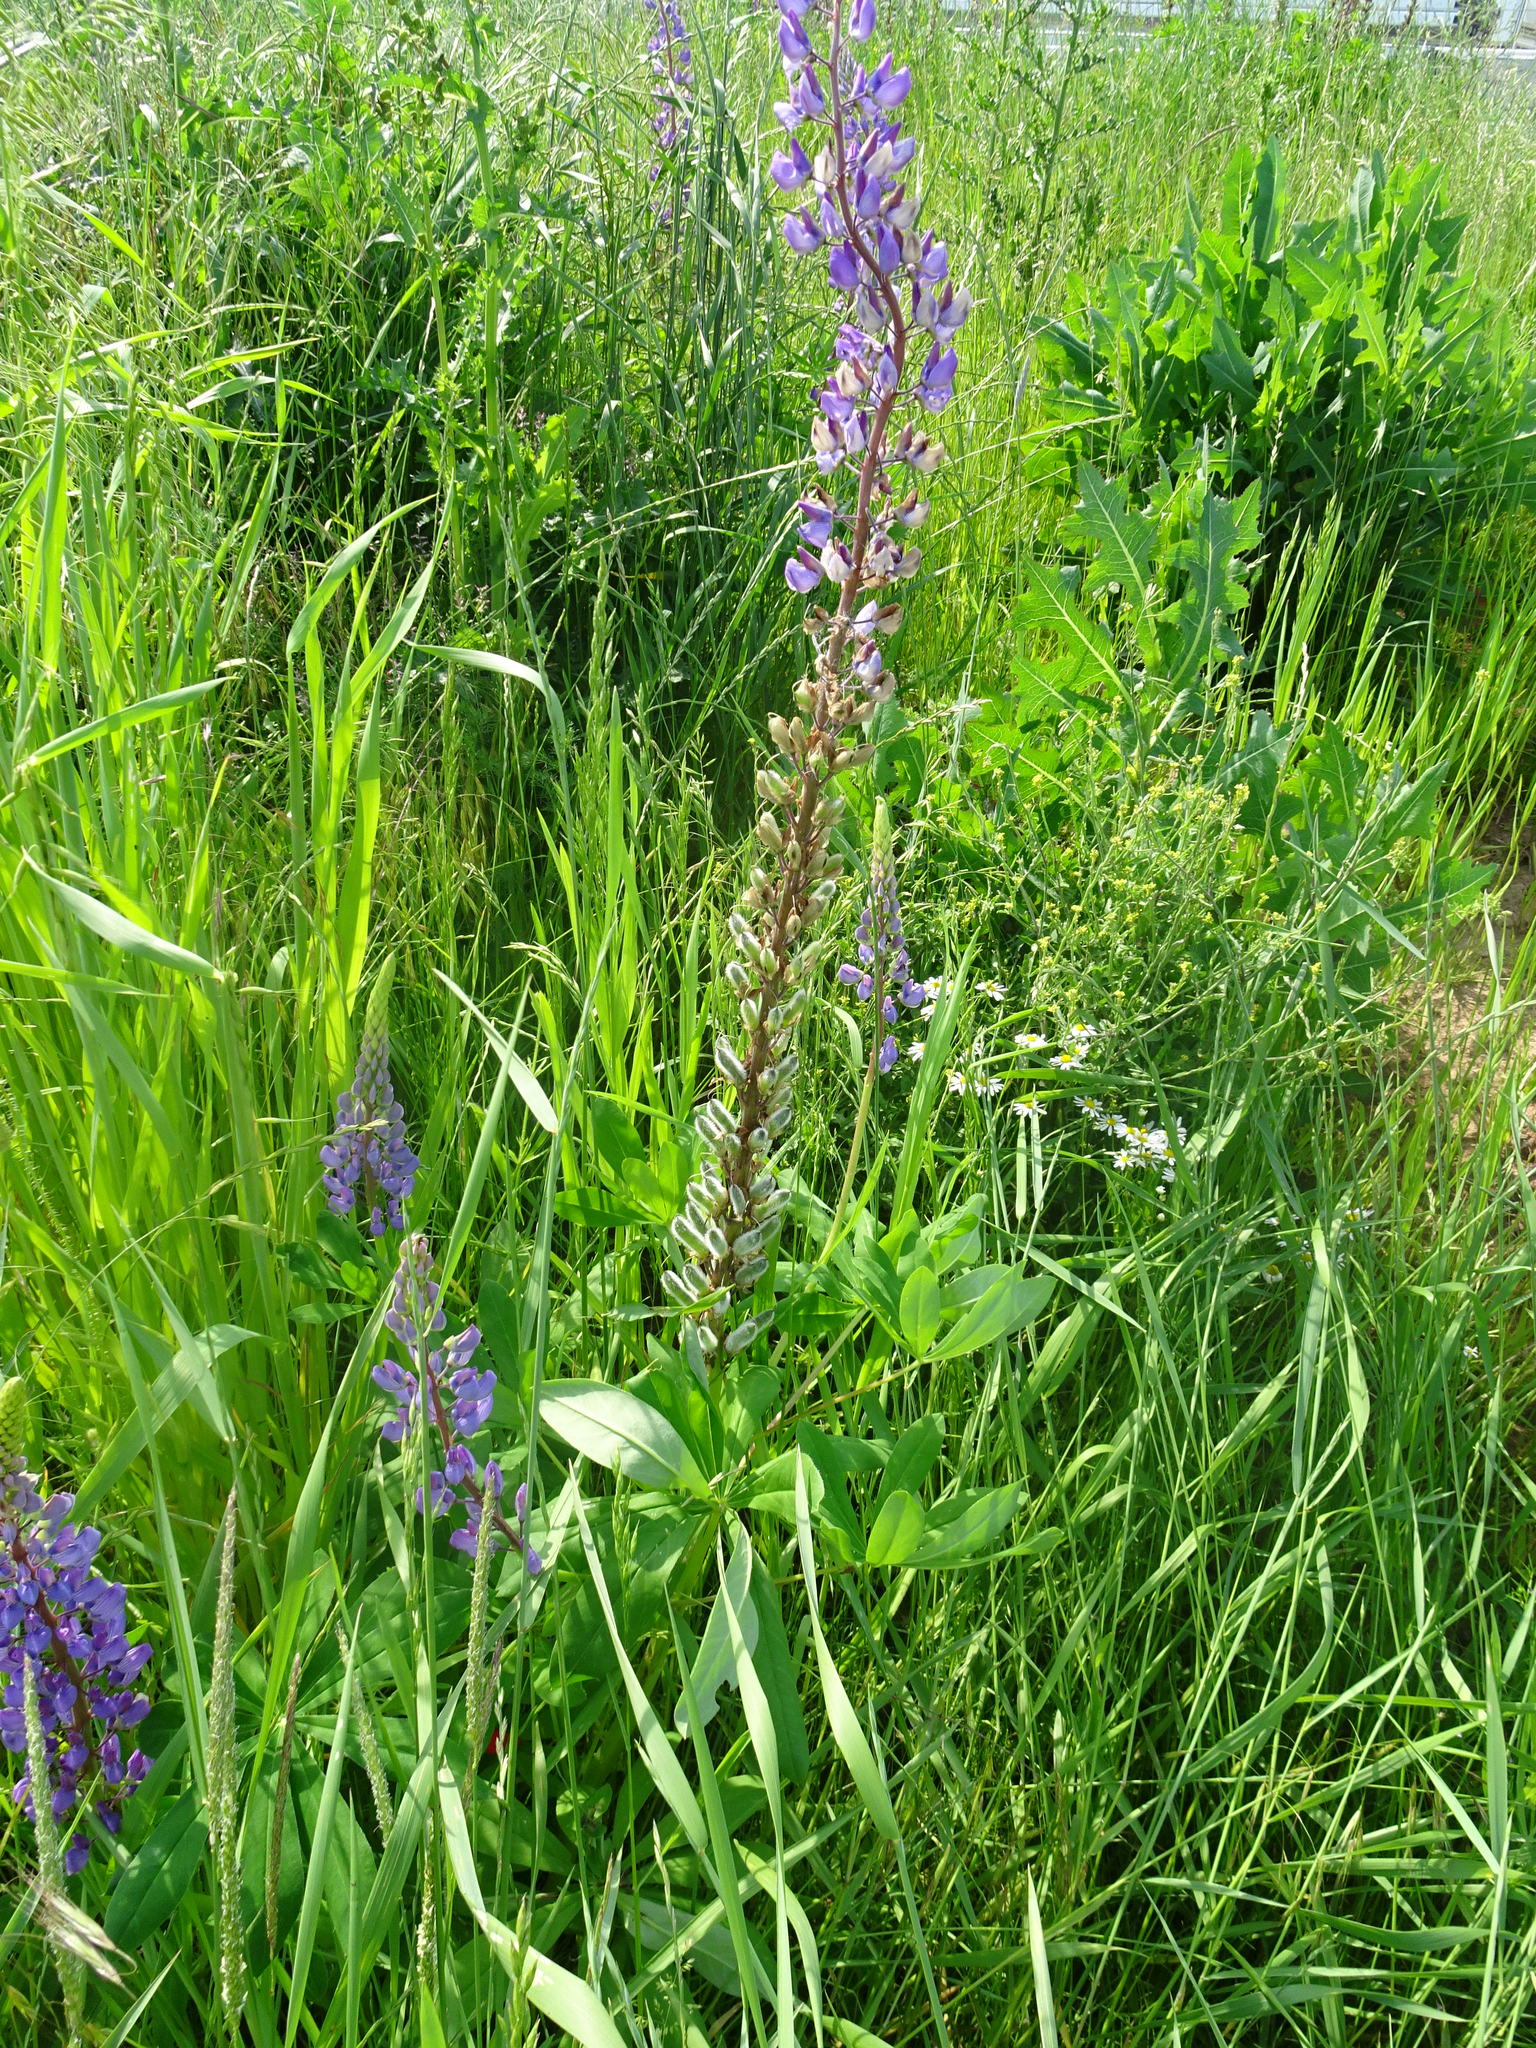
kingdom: Plantae
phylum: Tracheophyta
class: Magnoliopsida
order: Fabales
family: Fabaceae
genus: Lupinus
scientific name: Lupinus polyphyllus
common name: Garden lupin
